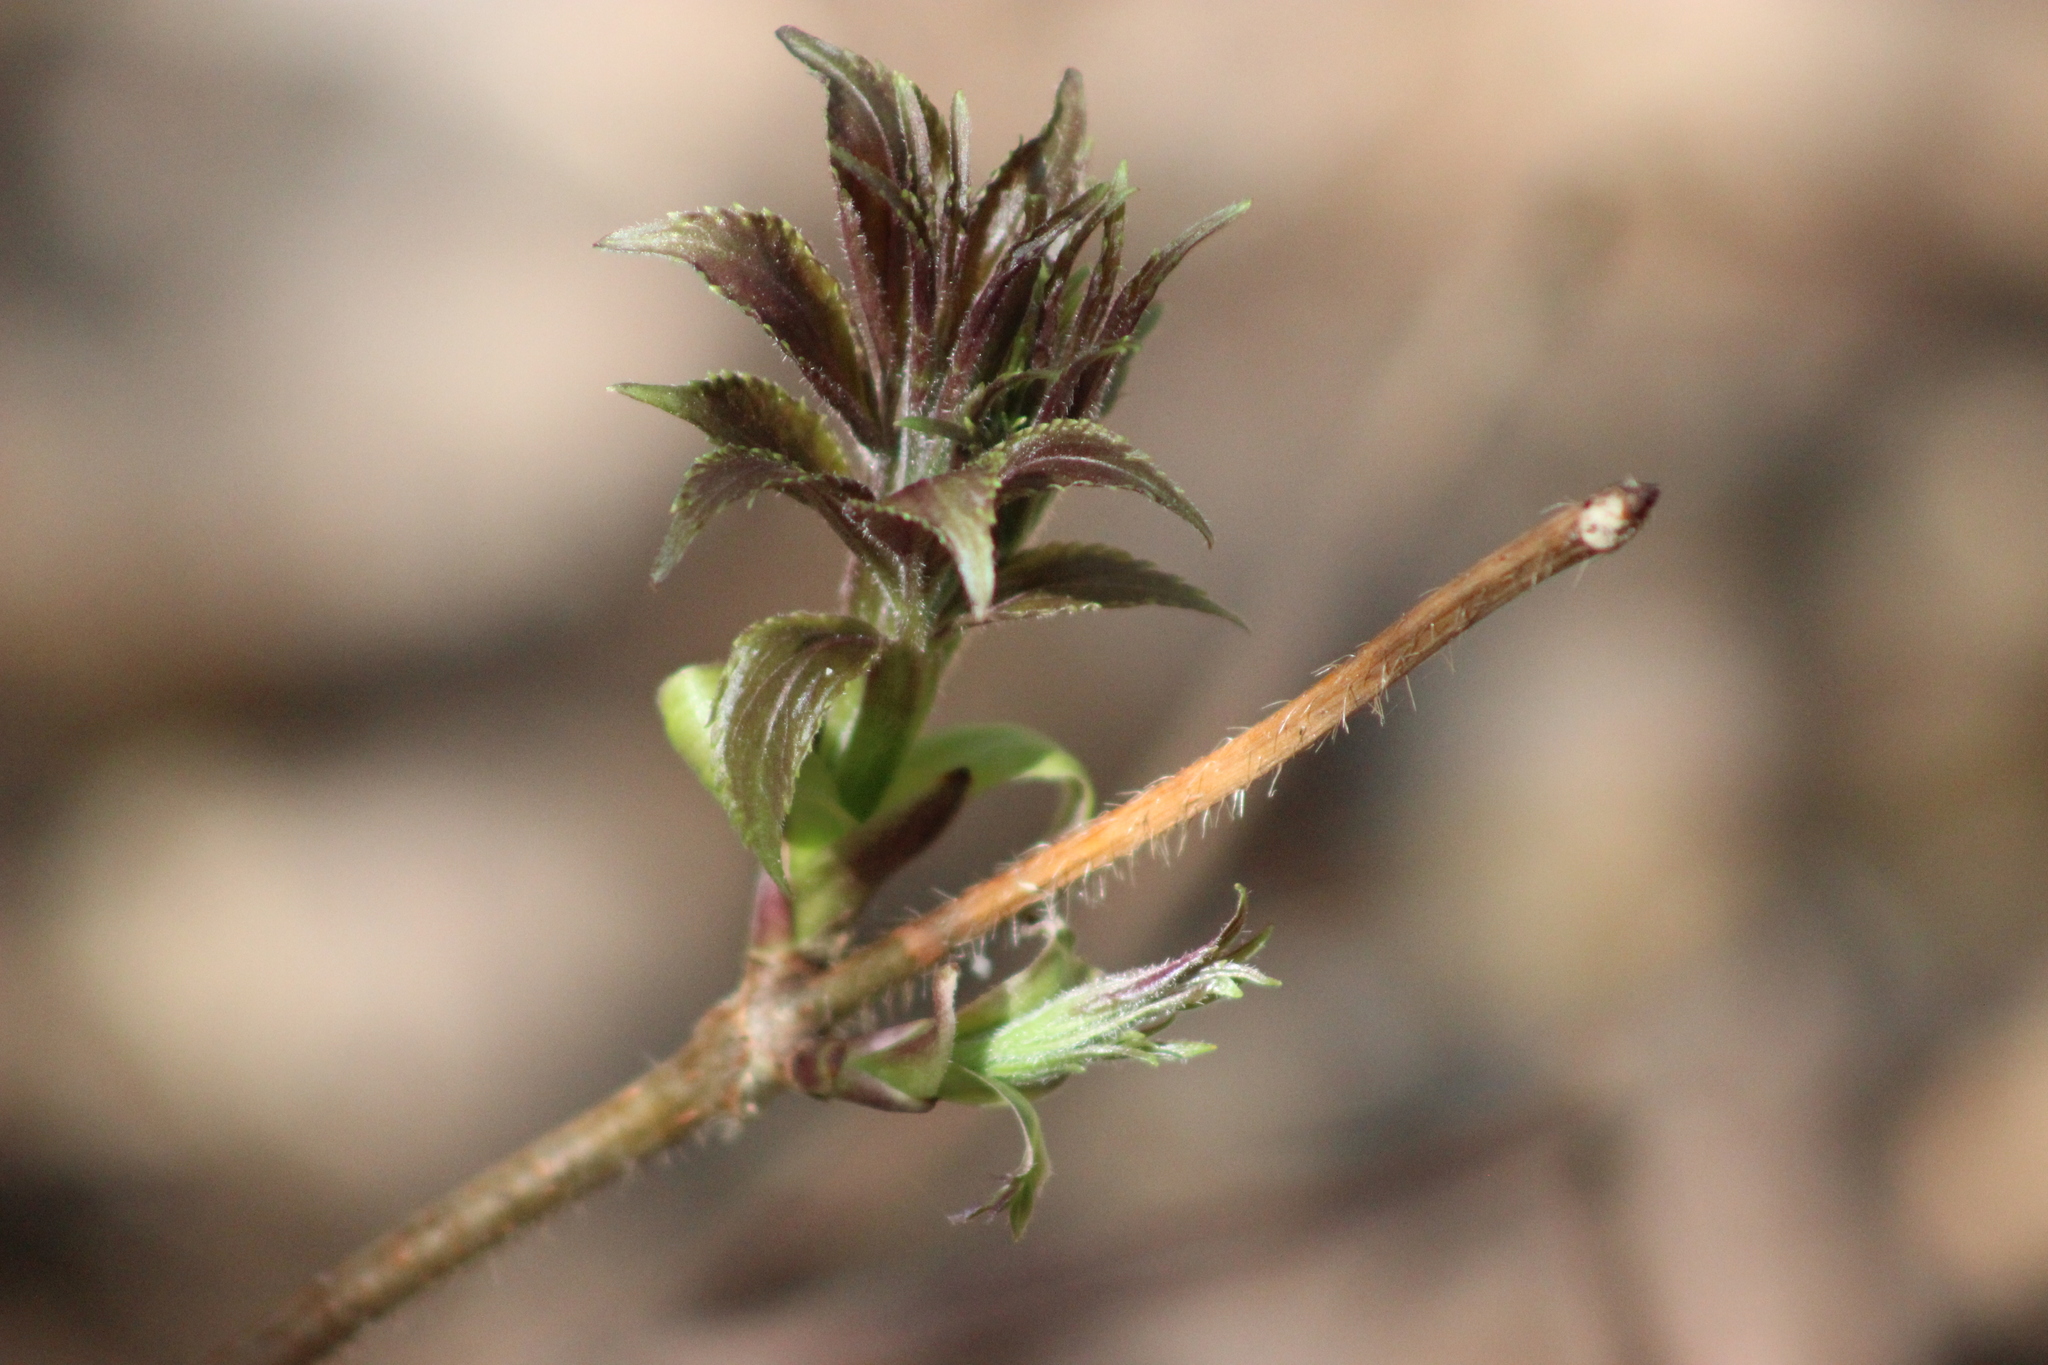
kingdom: Plantae
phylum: Tracheophyta
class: Magnoliopsida
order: Dipsacales
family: Viburnaceae
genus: Sambucus
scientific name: Sambucus sibirica
